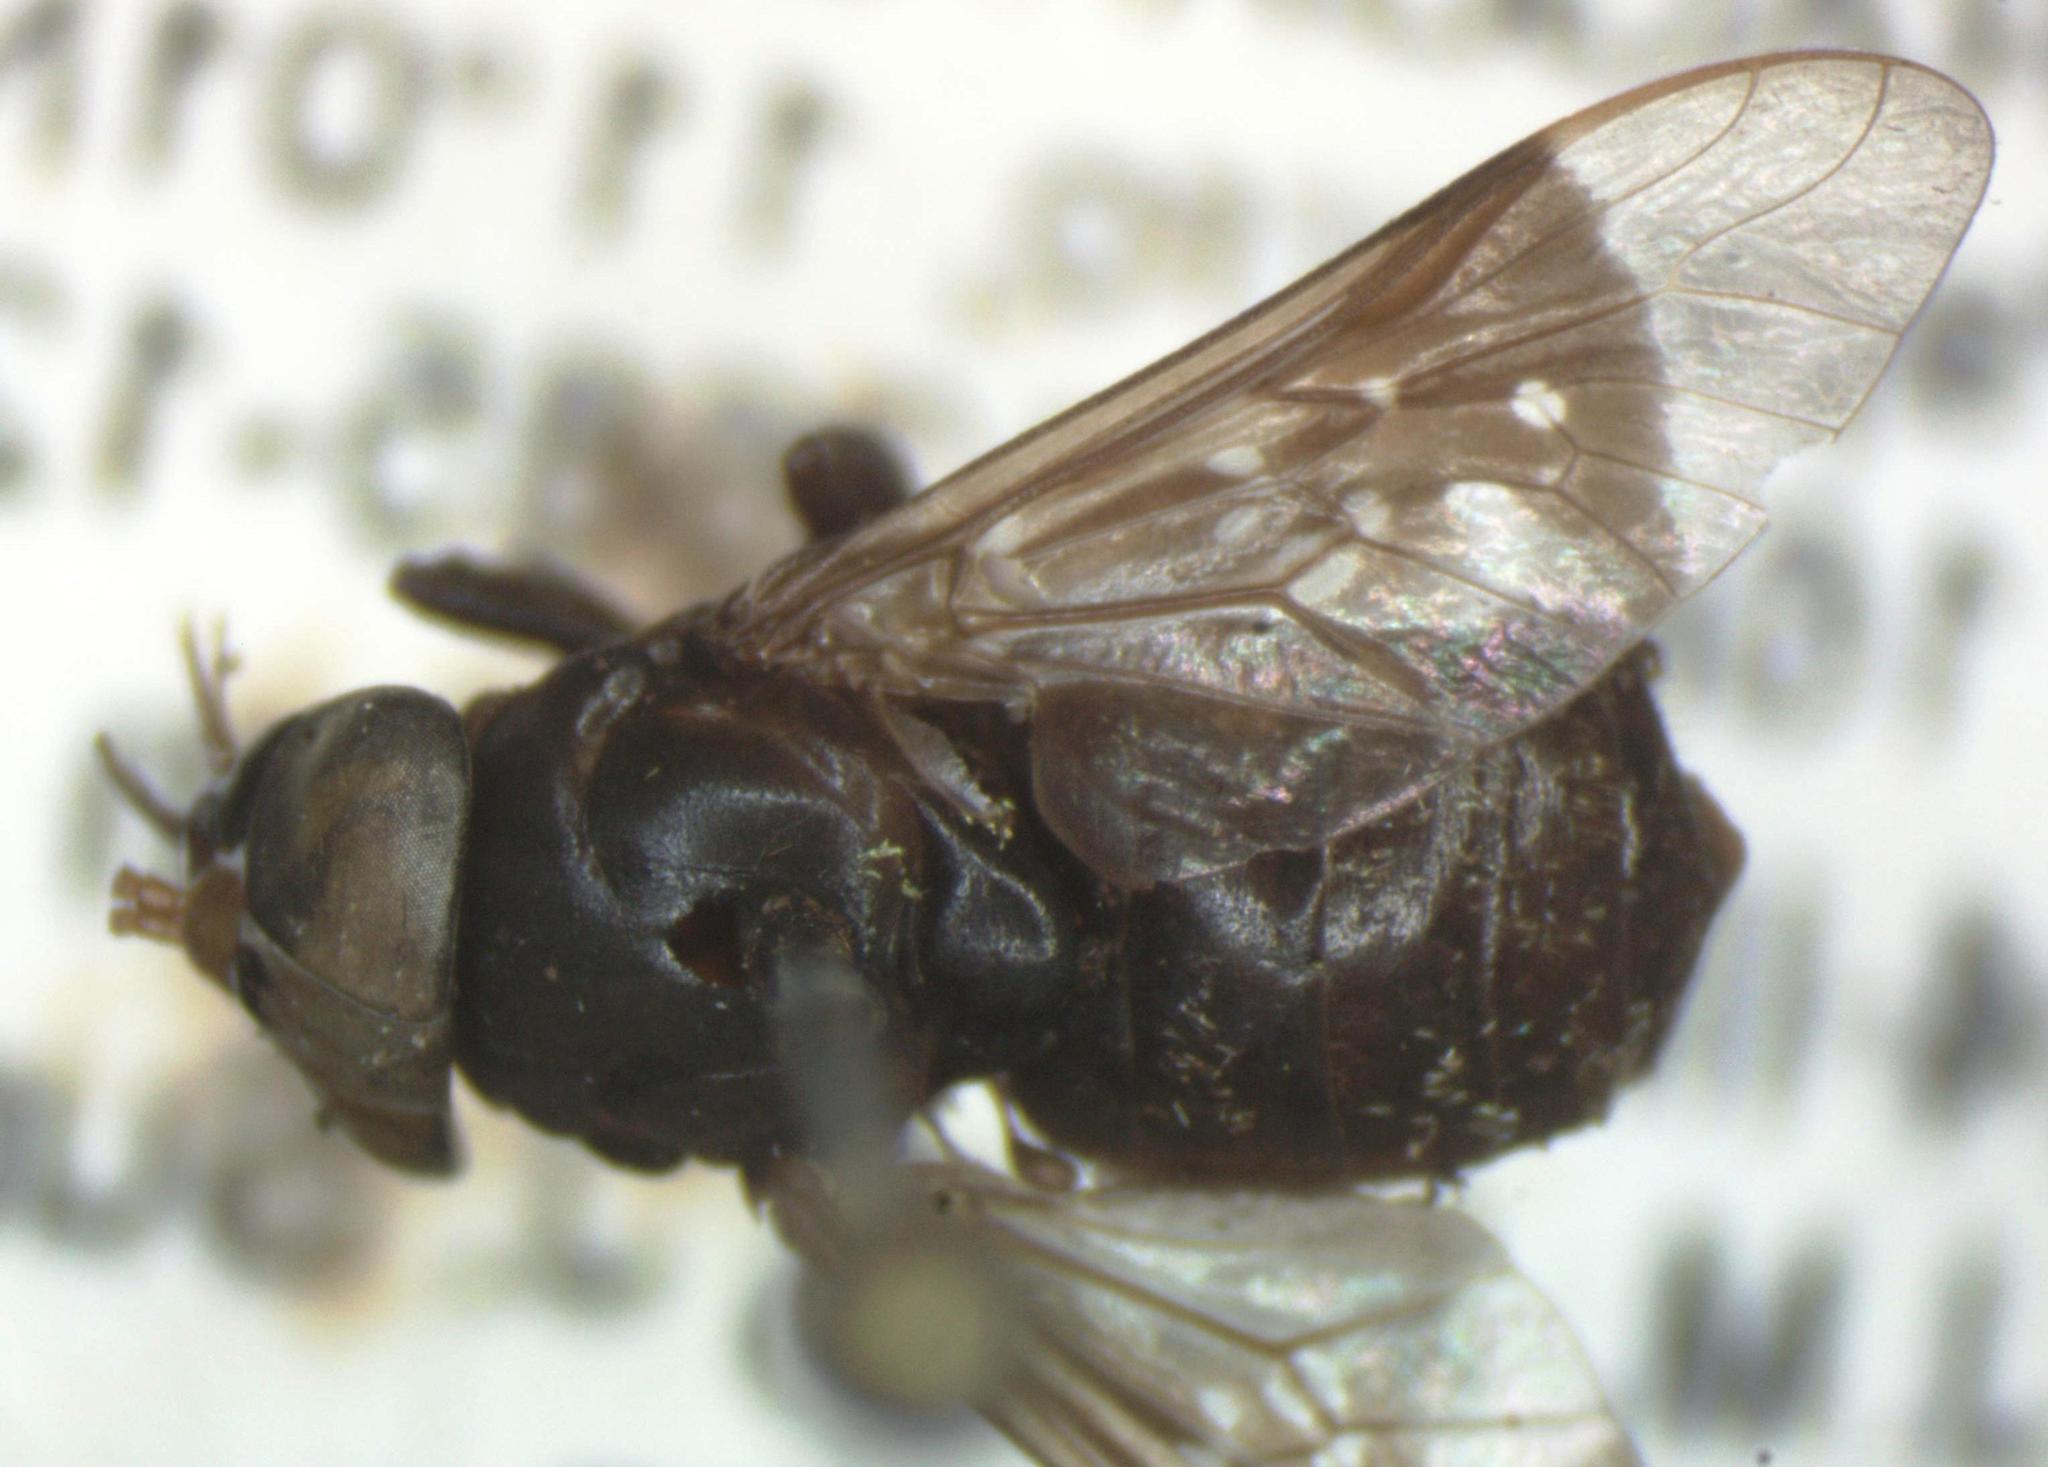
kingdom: Animalia
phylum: Arthropoda
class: Insecta
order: Diptera
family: Tabanidae
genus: Lepiselaga
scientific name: Lepiselaga crassipes
